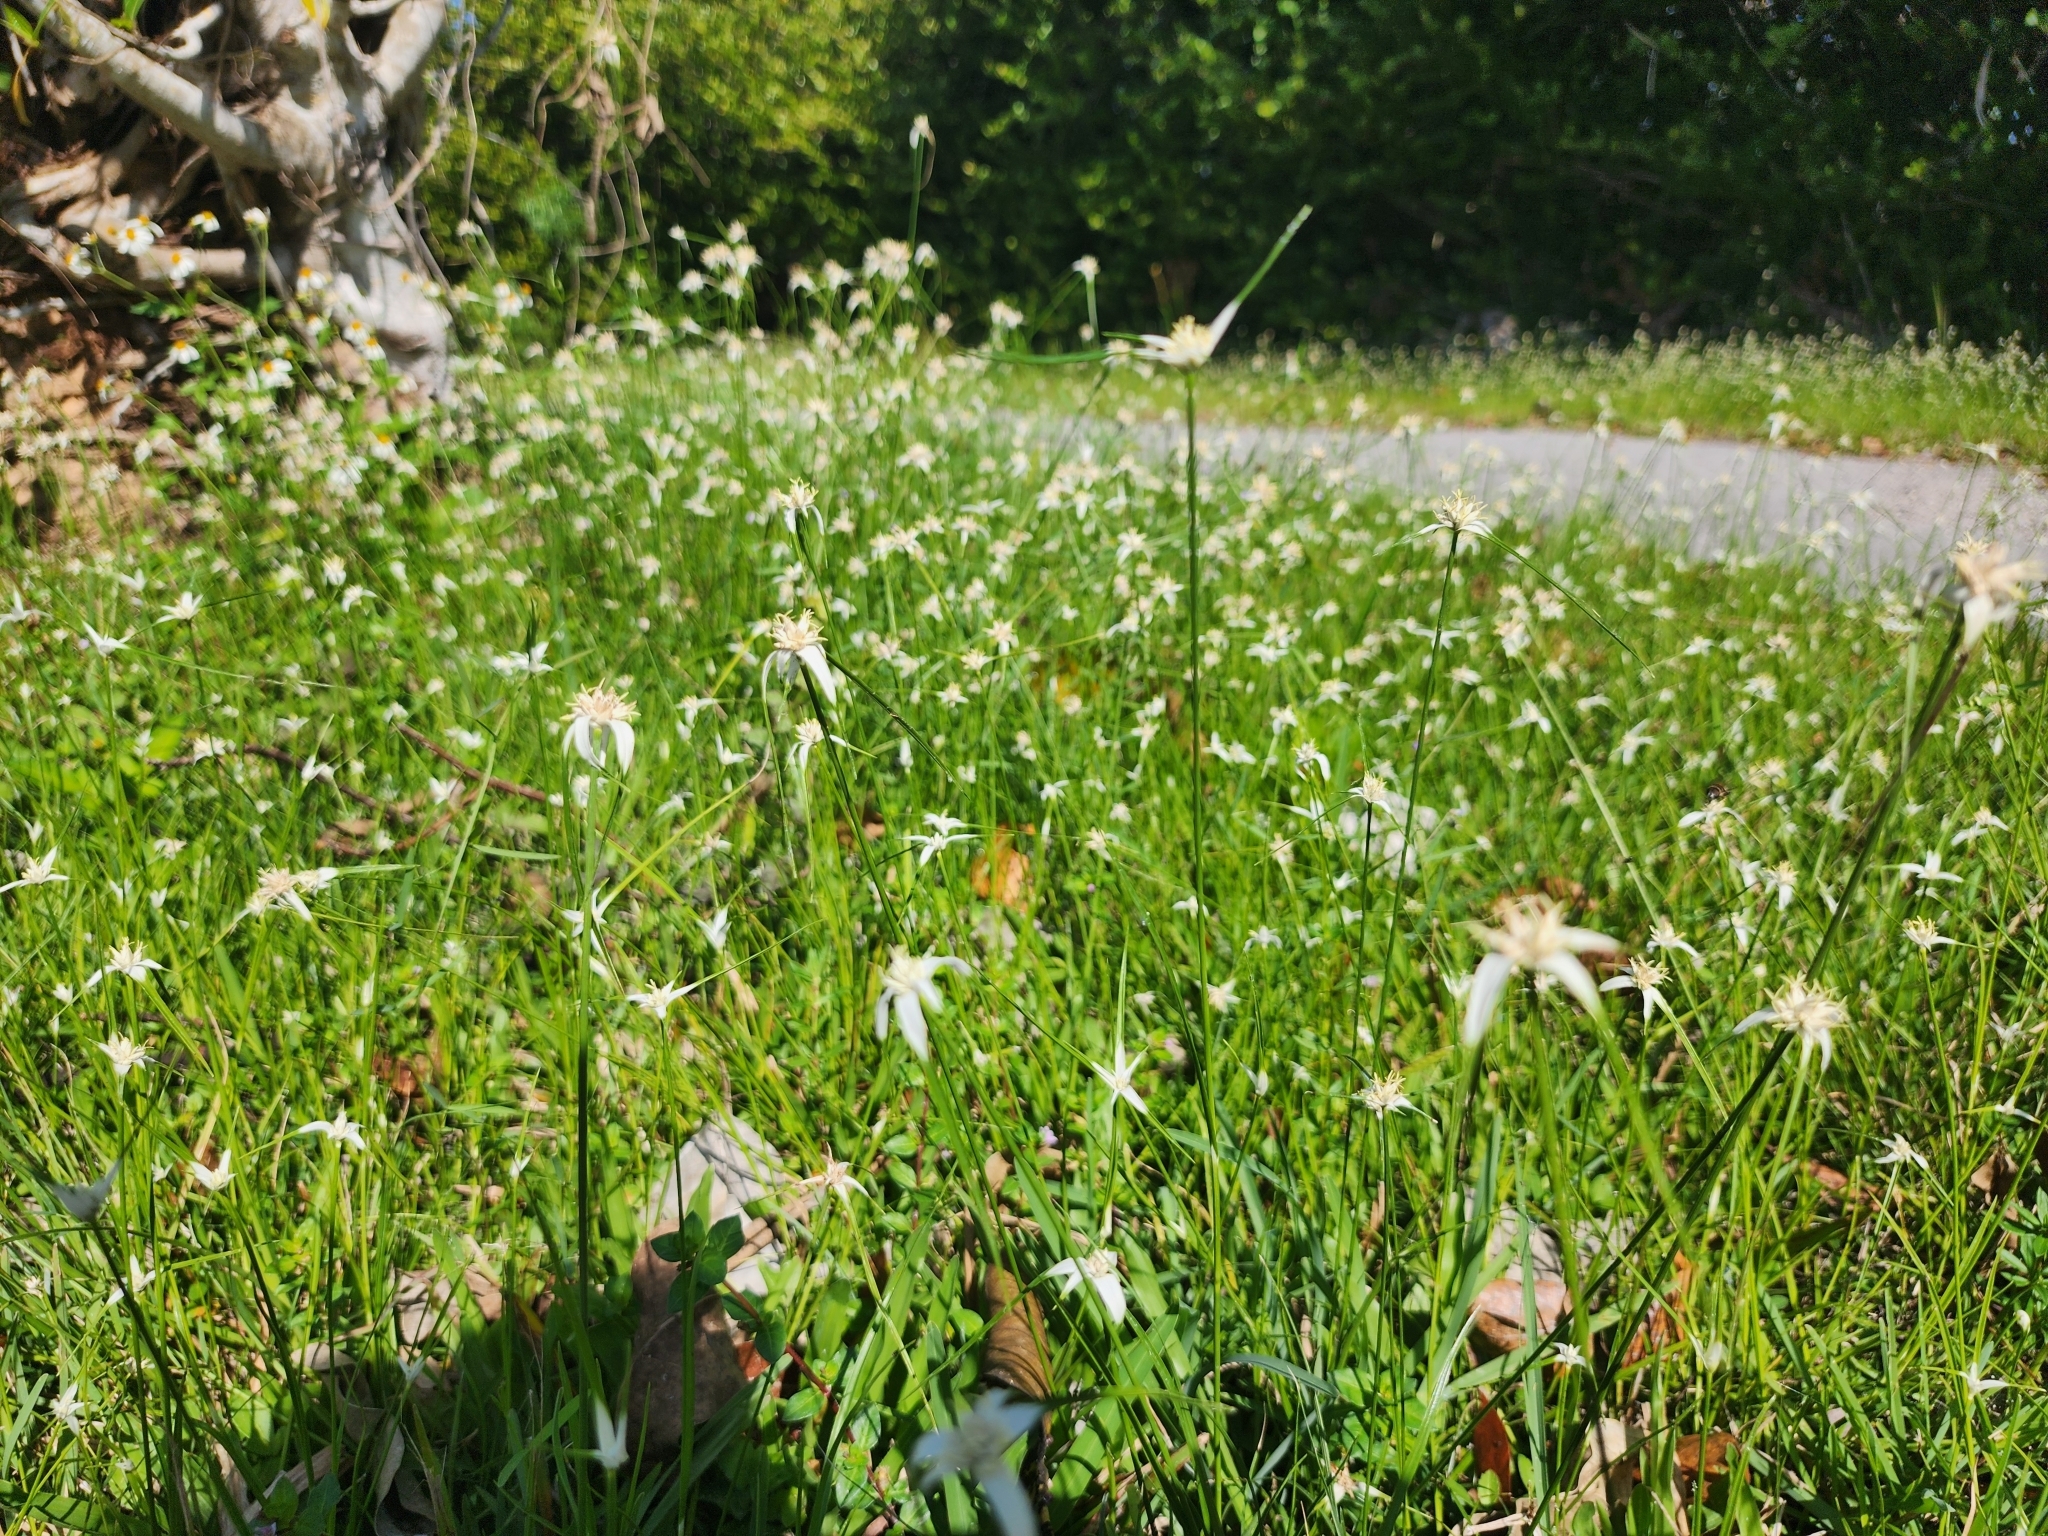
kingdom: Plantae
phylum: Tracheophyta
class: Liliopsida
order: Poales
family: Cyperaceae
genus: Rhynchospora
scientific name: Rhynchospora colorata
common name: Star sedge
